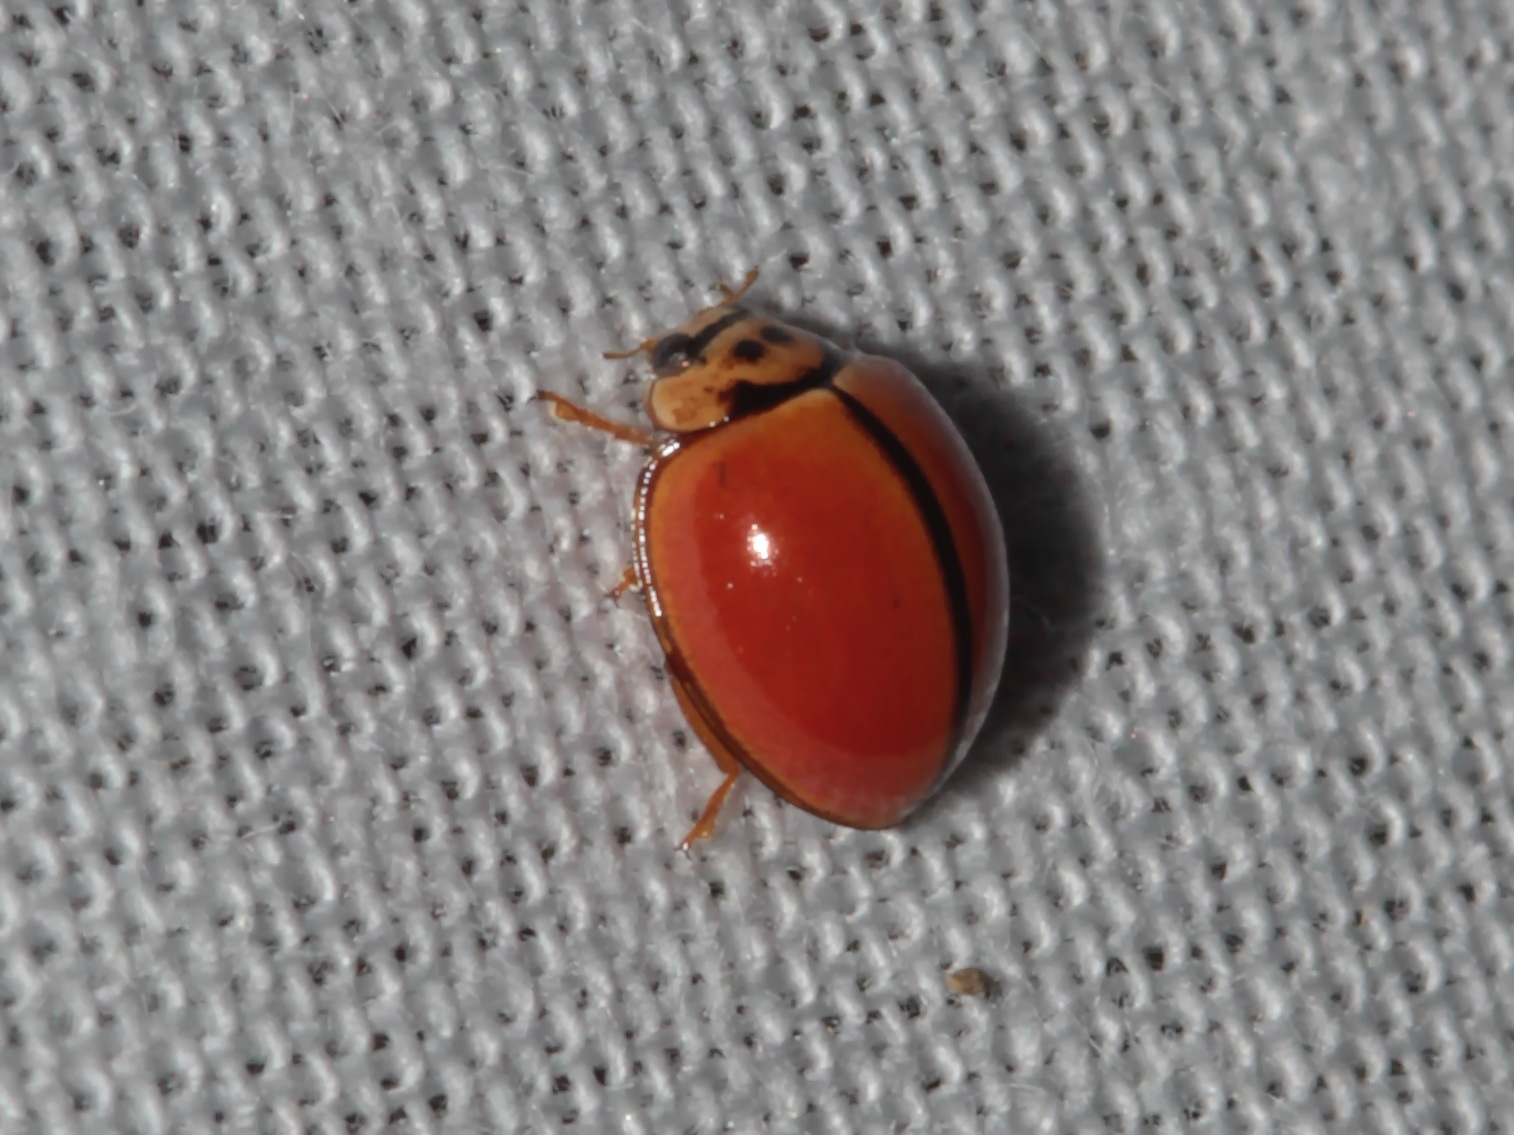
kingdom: Animalia
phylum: Arthropoda
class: Insecta
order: Coleoptera
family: Coccinellidae
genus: Micraspis
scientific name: Micraspis discolor
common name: Lady beetle
